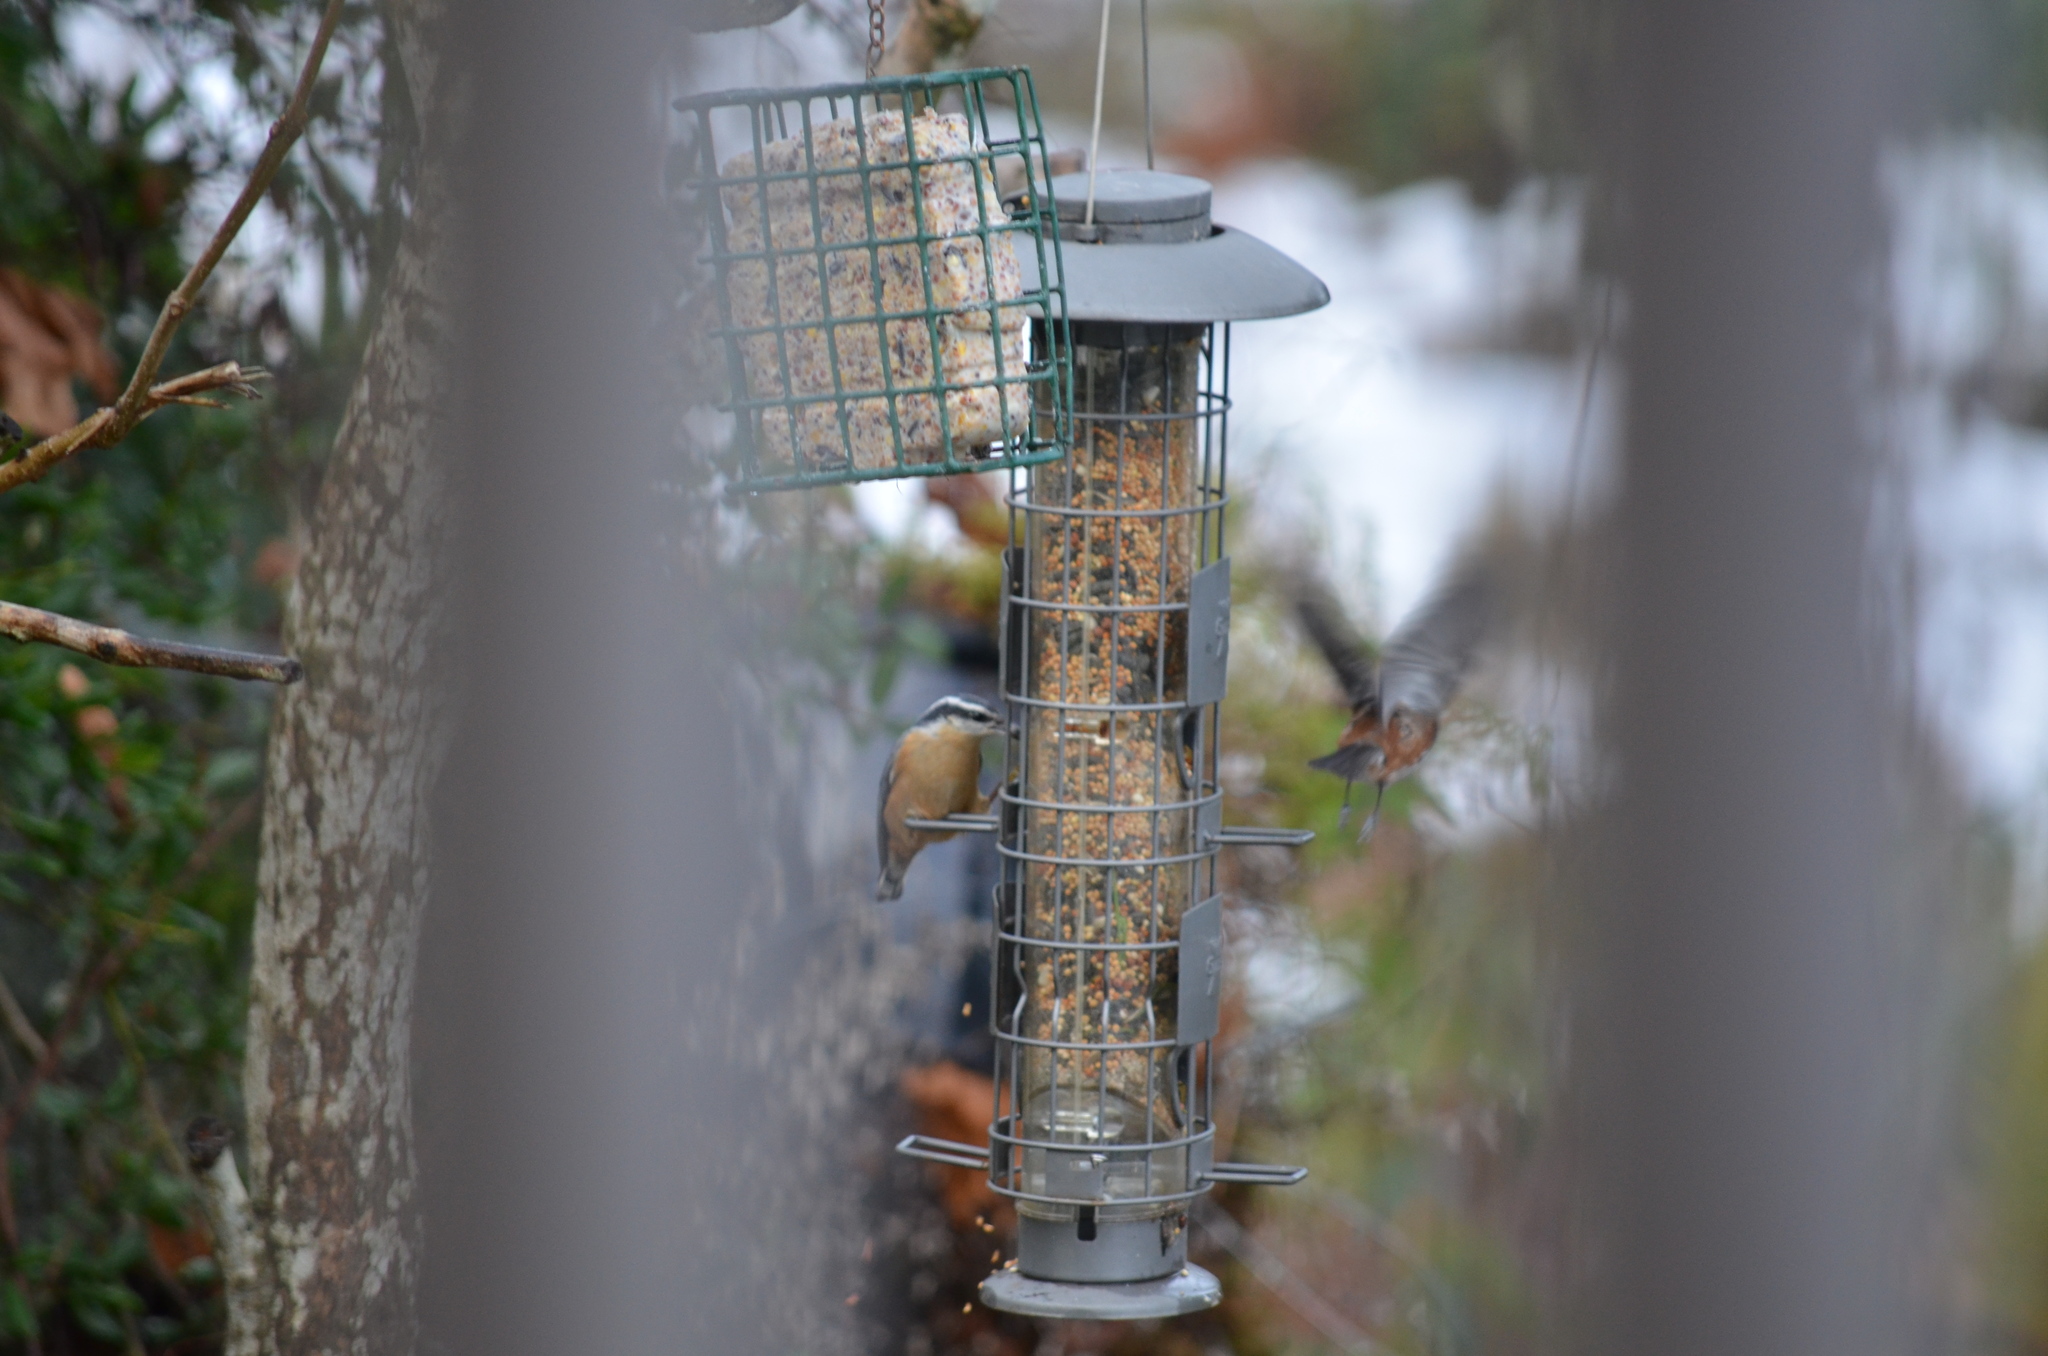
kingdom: Animalia
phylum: Chordata
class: Aves
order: Passeriformes
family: Sittidae
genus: Sitta
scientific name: Sitta canadensis
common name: Red-breasted nuthatch
